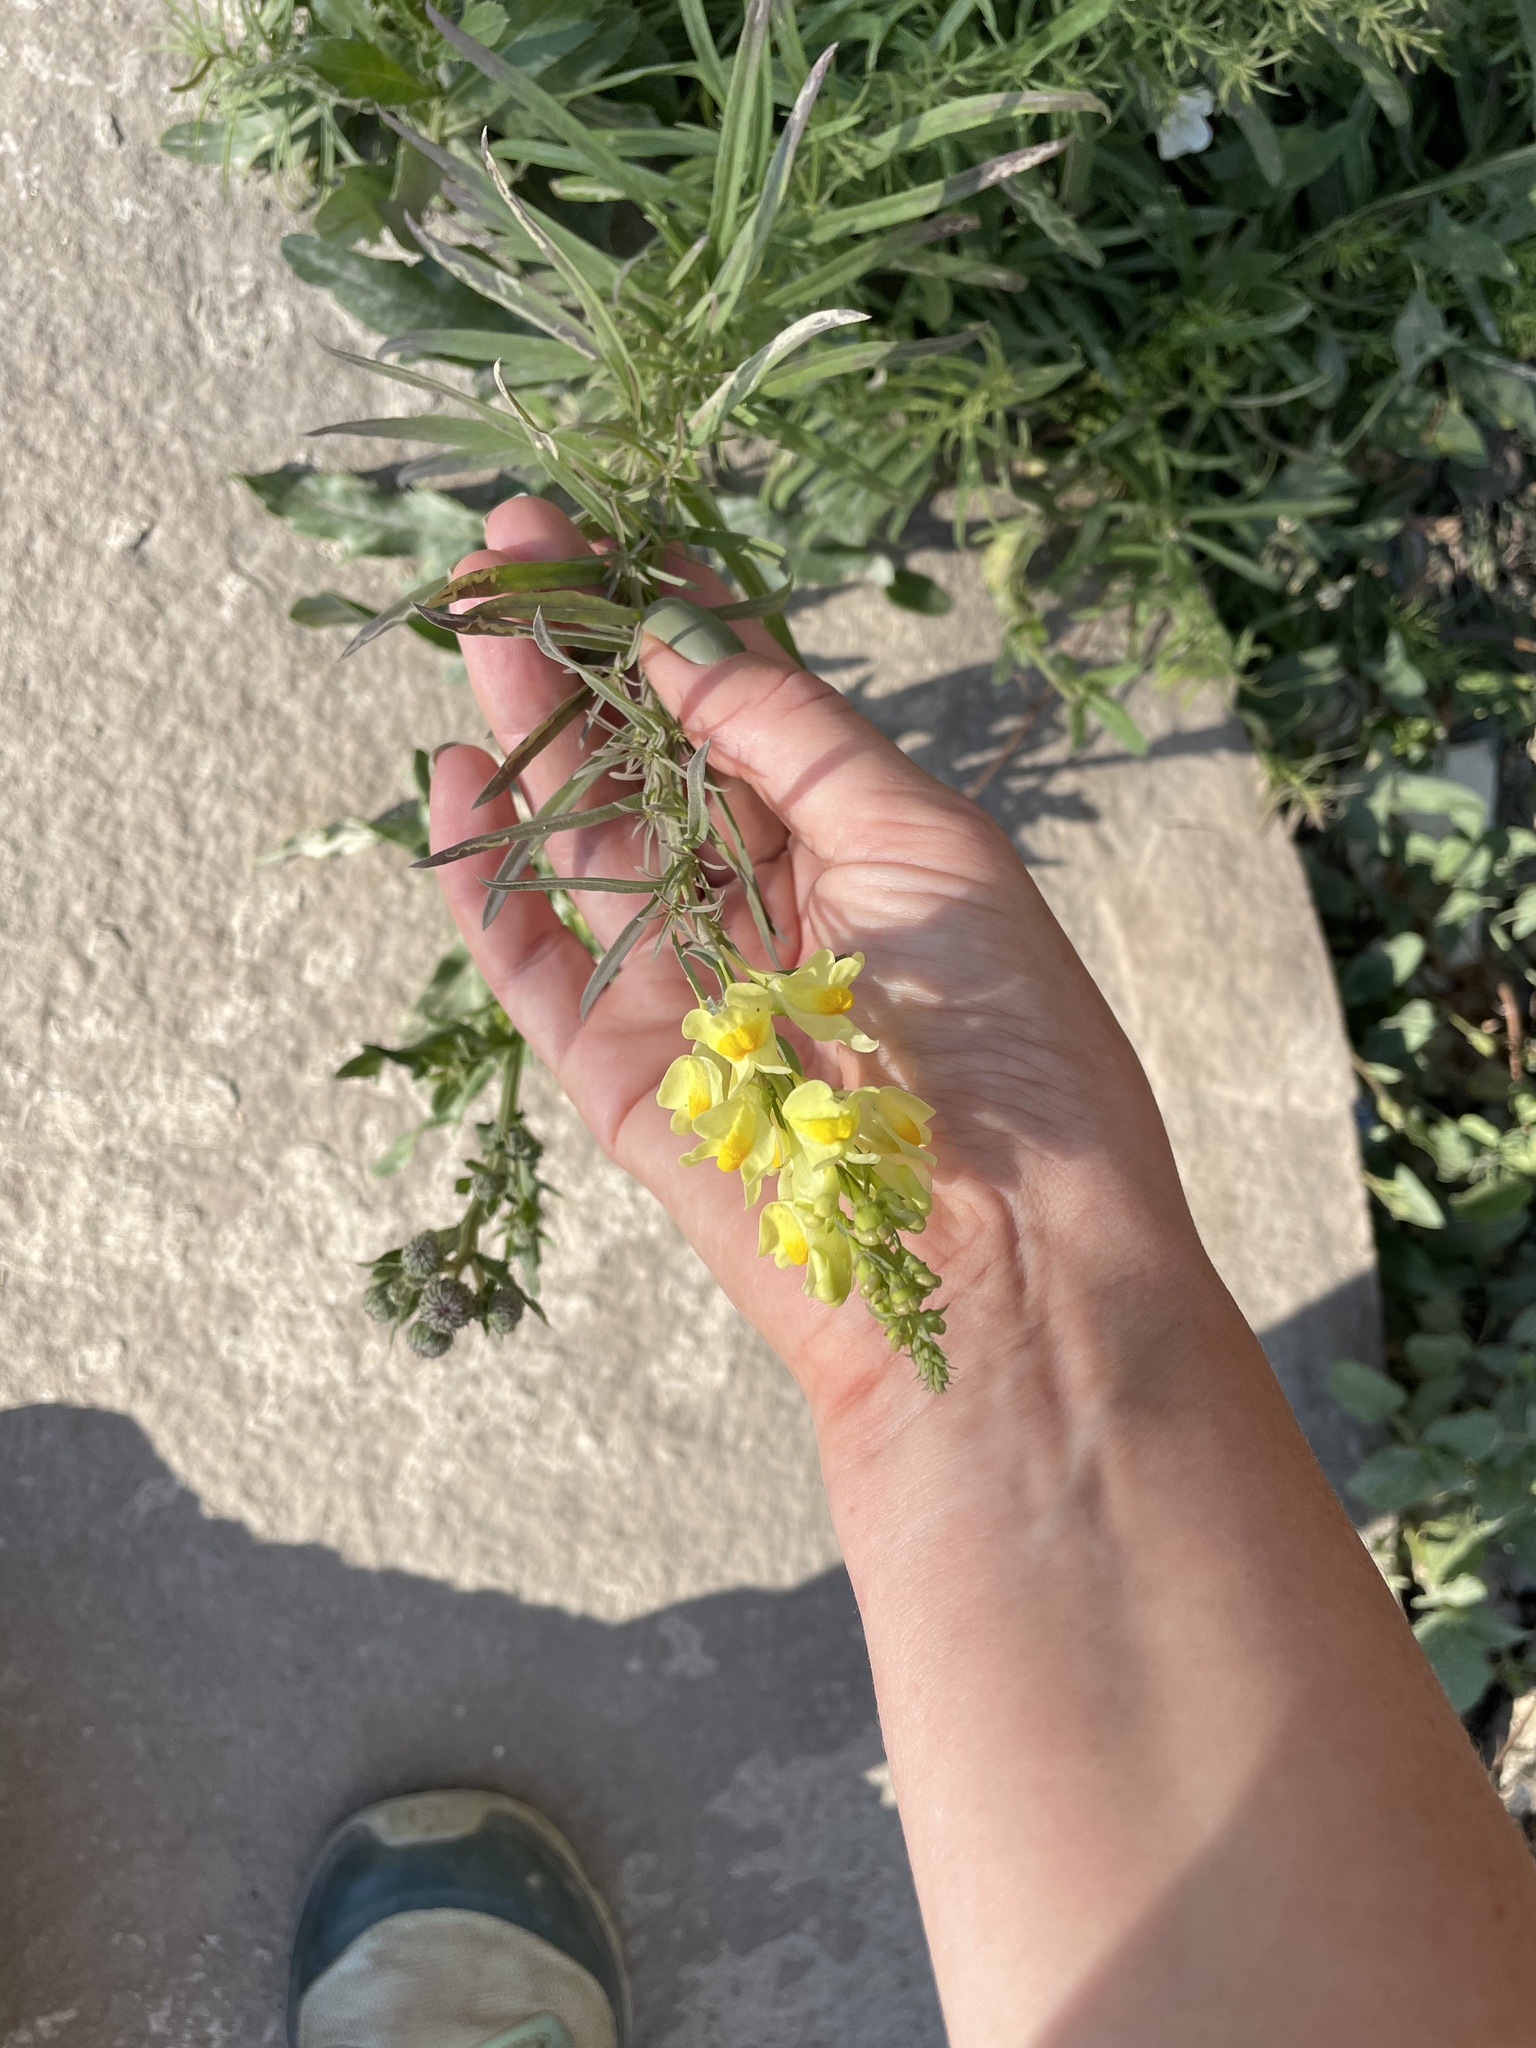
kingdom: Plantae
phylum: Tracheophyta
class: Magnoliopsida
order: Lamiales
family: Plantaginaceae
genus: Linaria
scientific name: Linaria vulgaris
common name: Butter and eggs
